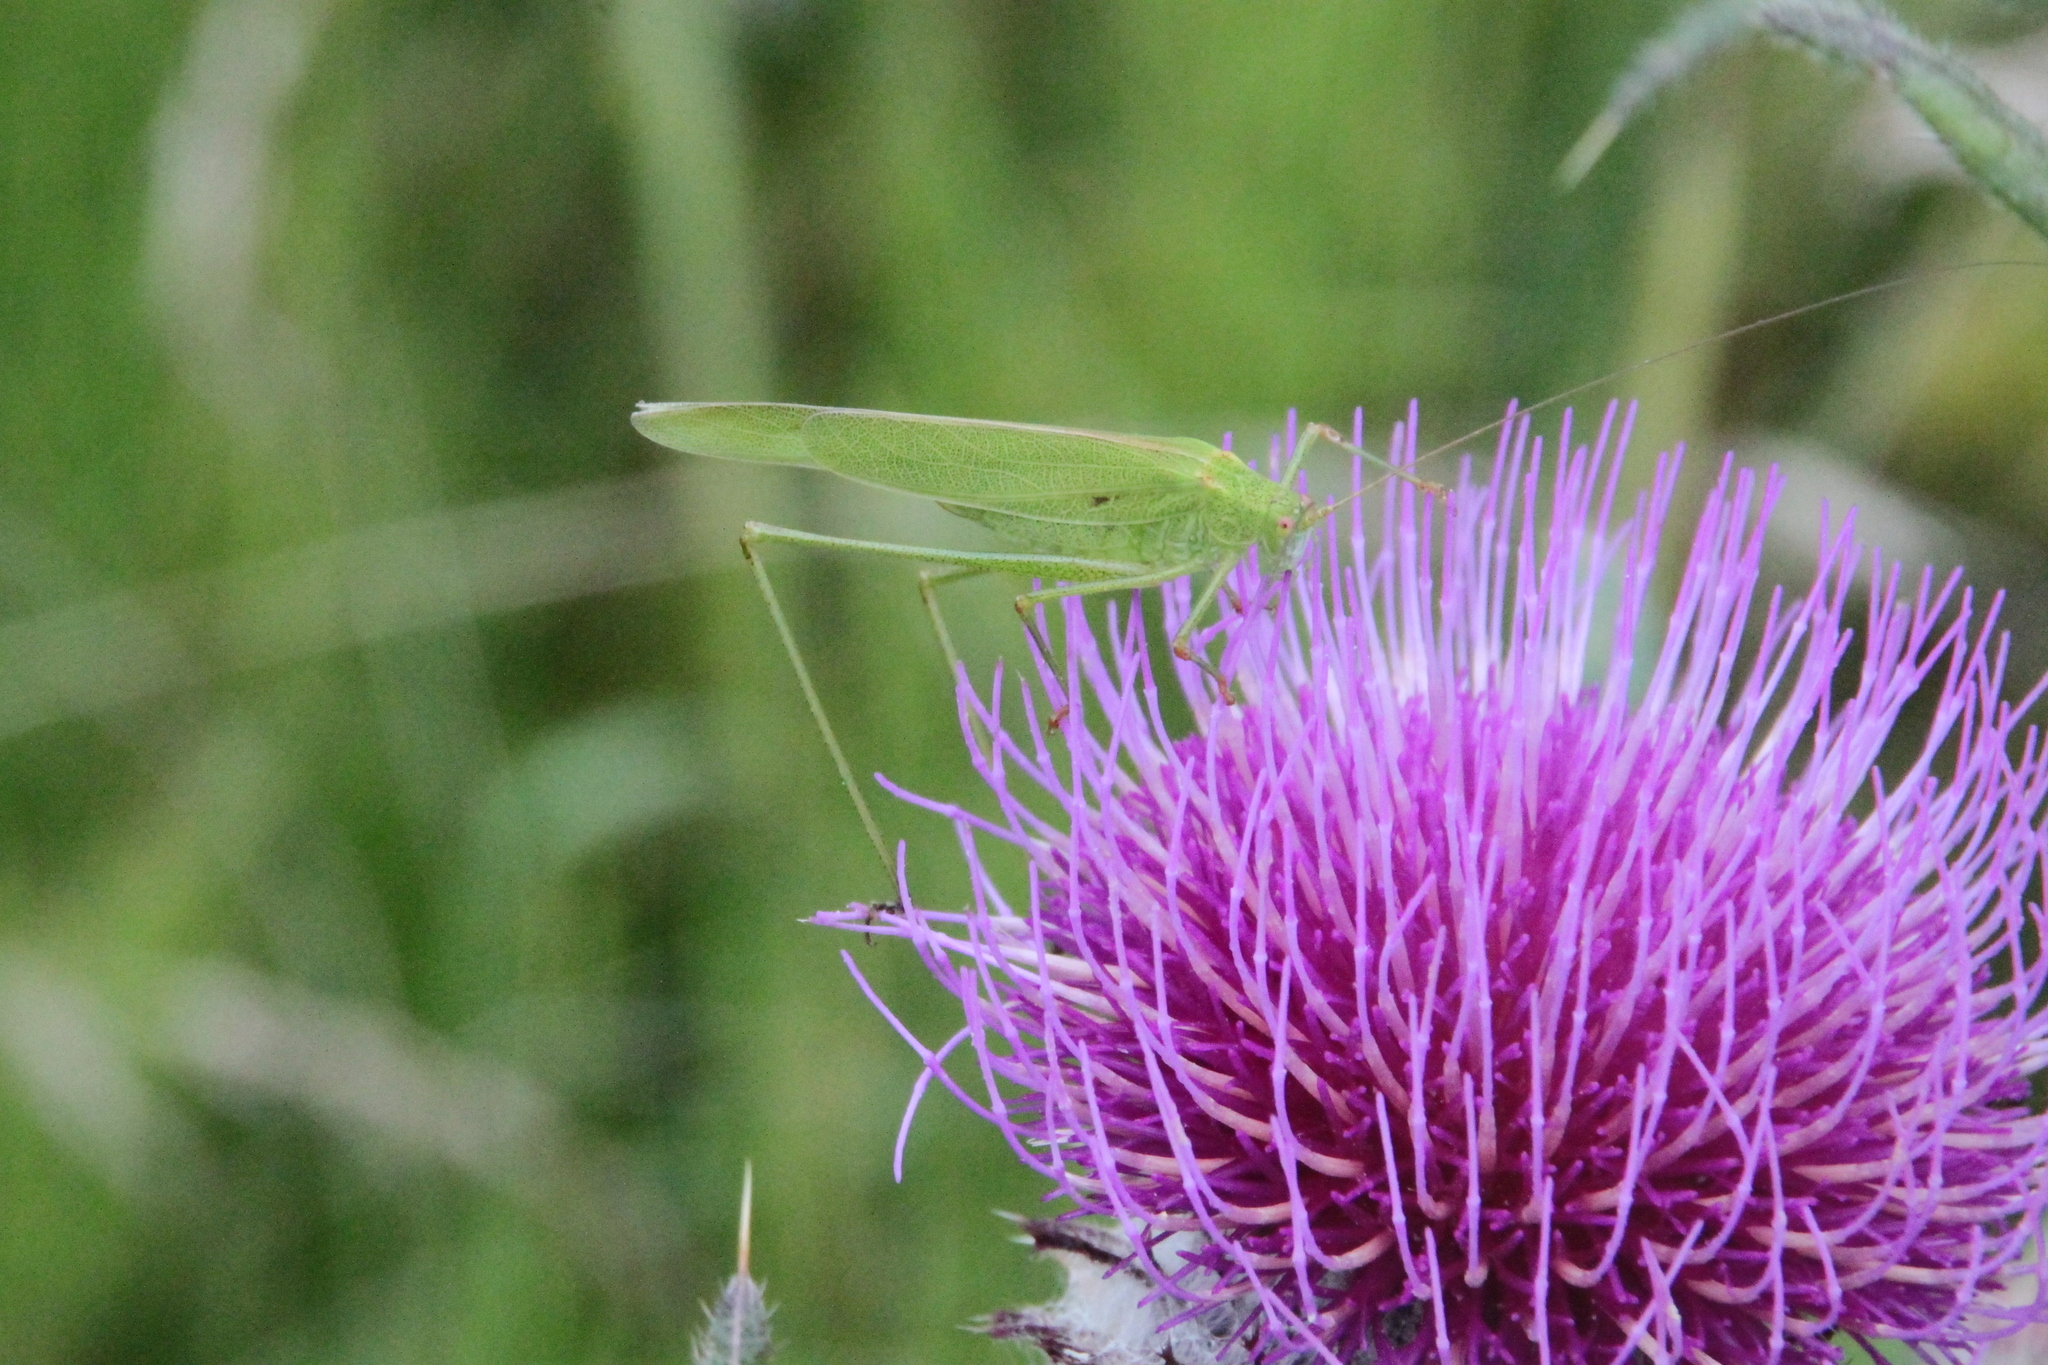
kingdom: Animalia
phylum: Arthropoda
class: Insecta
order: Orthoptera
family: Tettigoniidae
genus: Phaneroptera
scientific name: Phaneroptera falcata
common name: Sickle-bearing bush-cricket
